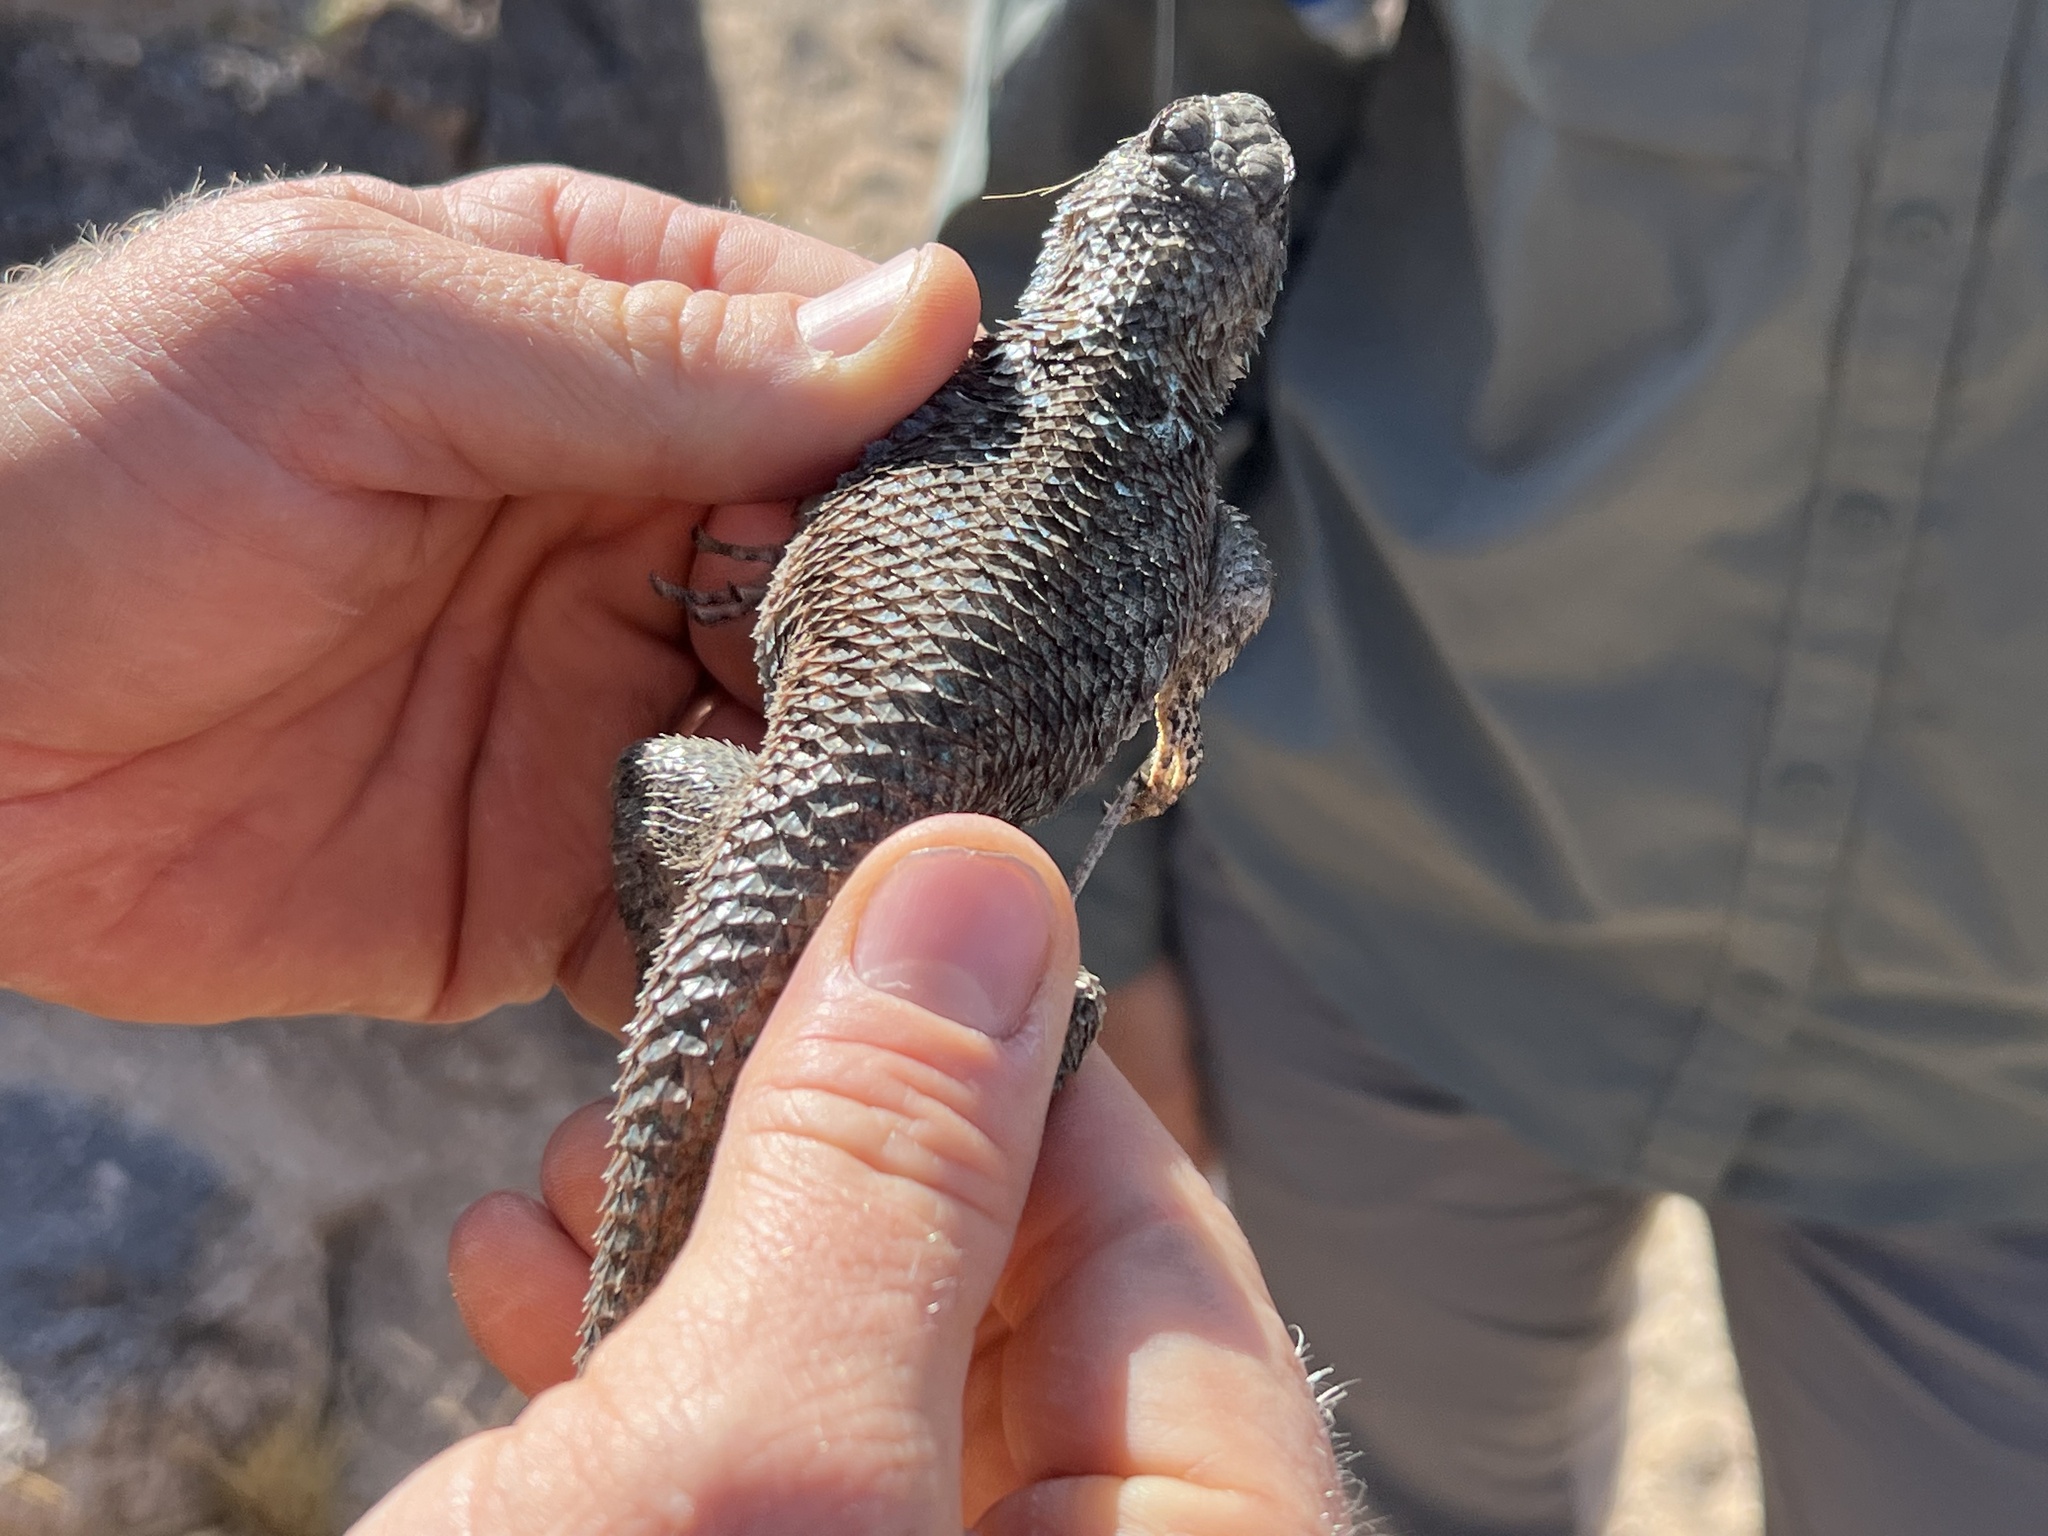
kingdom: Animalia
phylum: Chordata
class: Squamata
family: Phrynosomatidae
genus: Sceloporus
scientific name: Sceloporus clarkii
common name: Clark's spiny lizard
